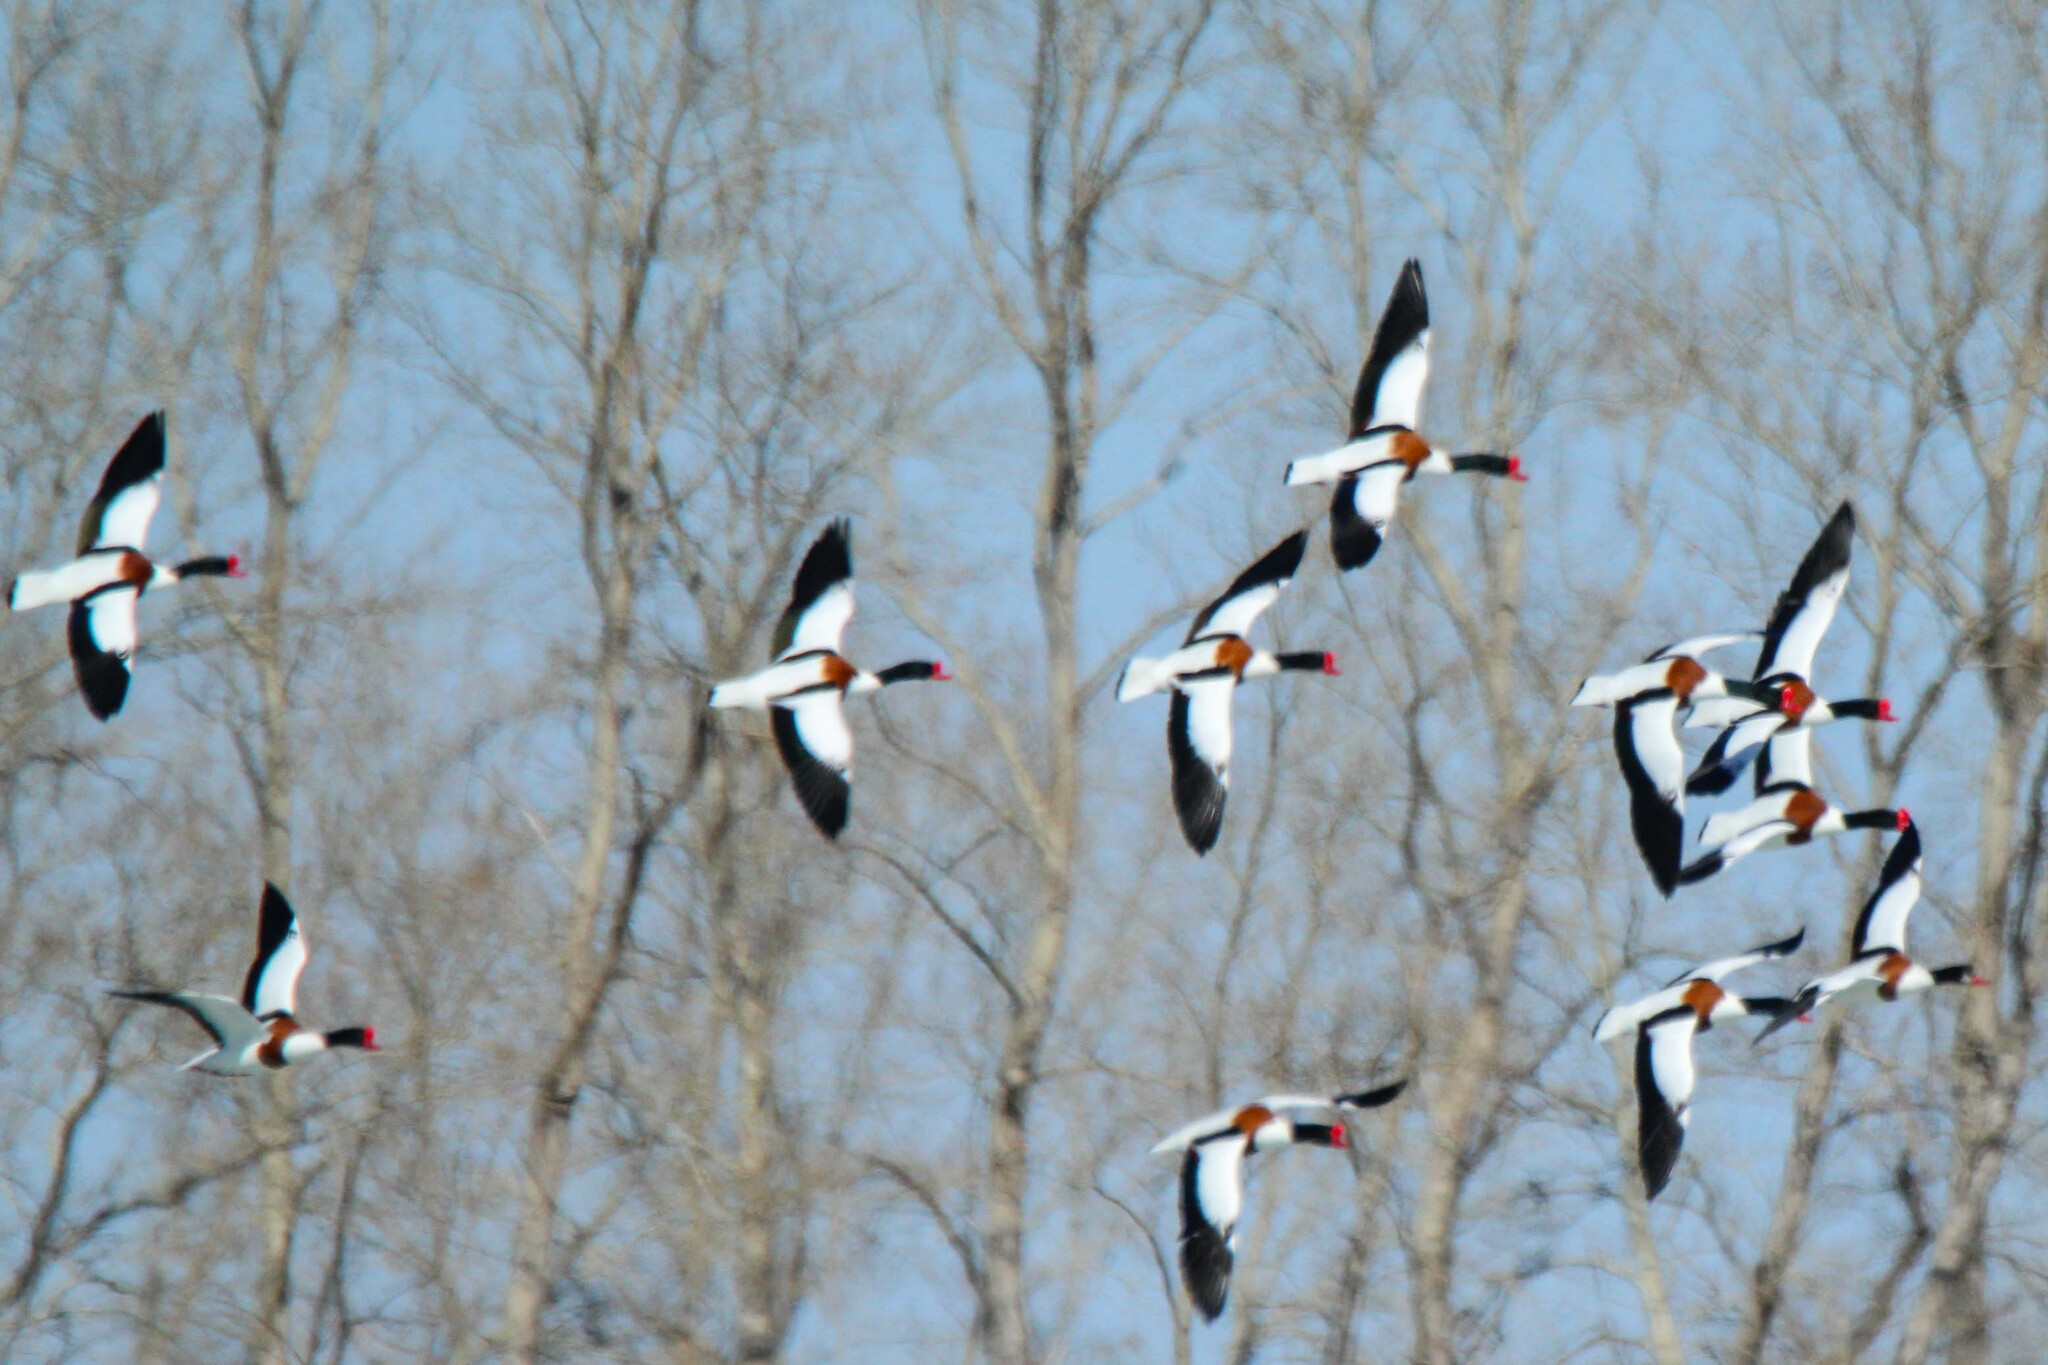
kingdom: Animalia
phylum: Chordata
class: Aves
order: Anseriformes
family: Anatidae
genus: Tadorna
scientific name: Tadorna tadorna
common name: Common shelduck
